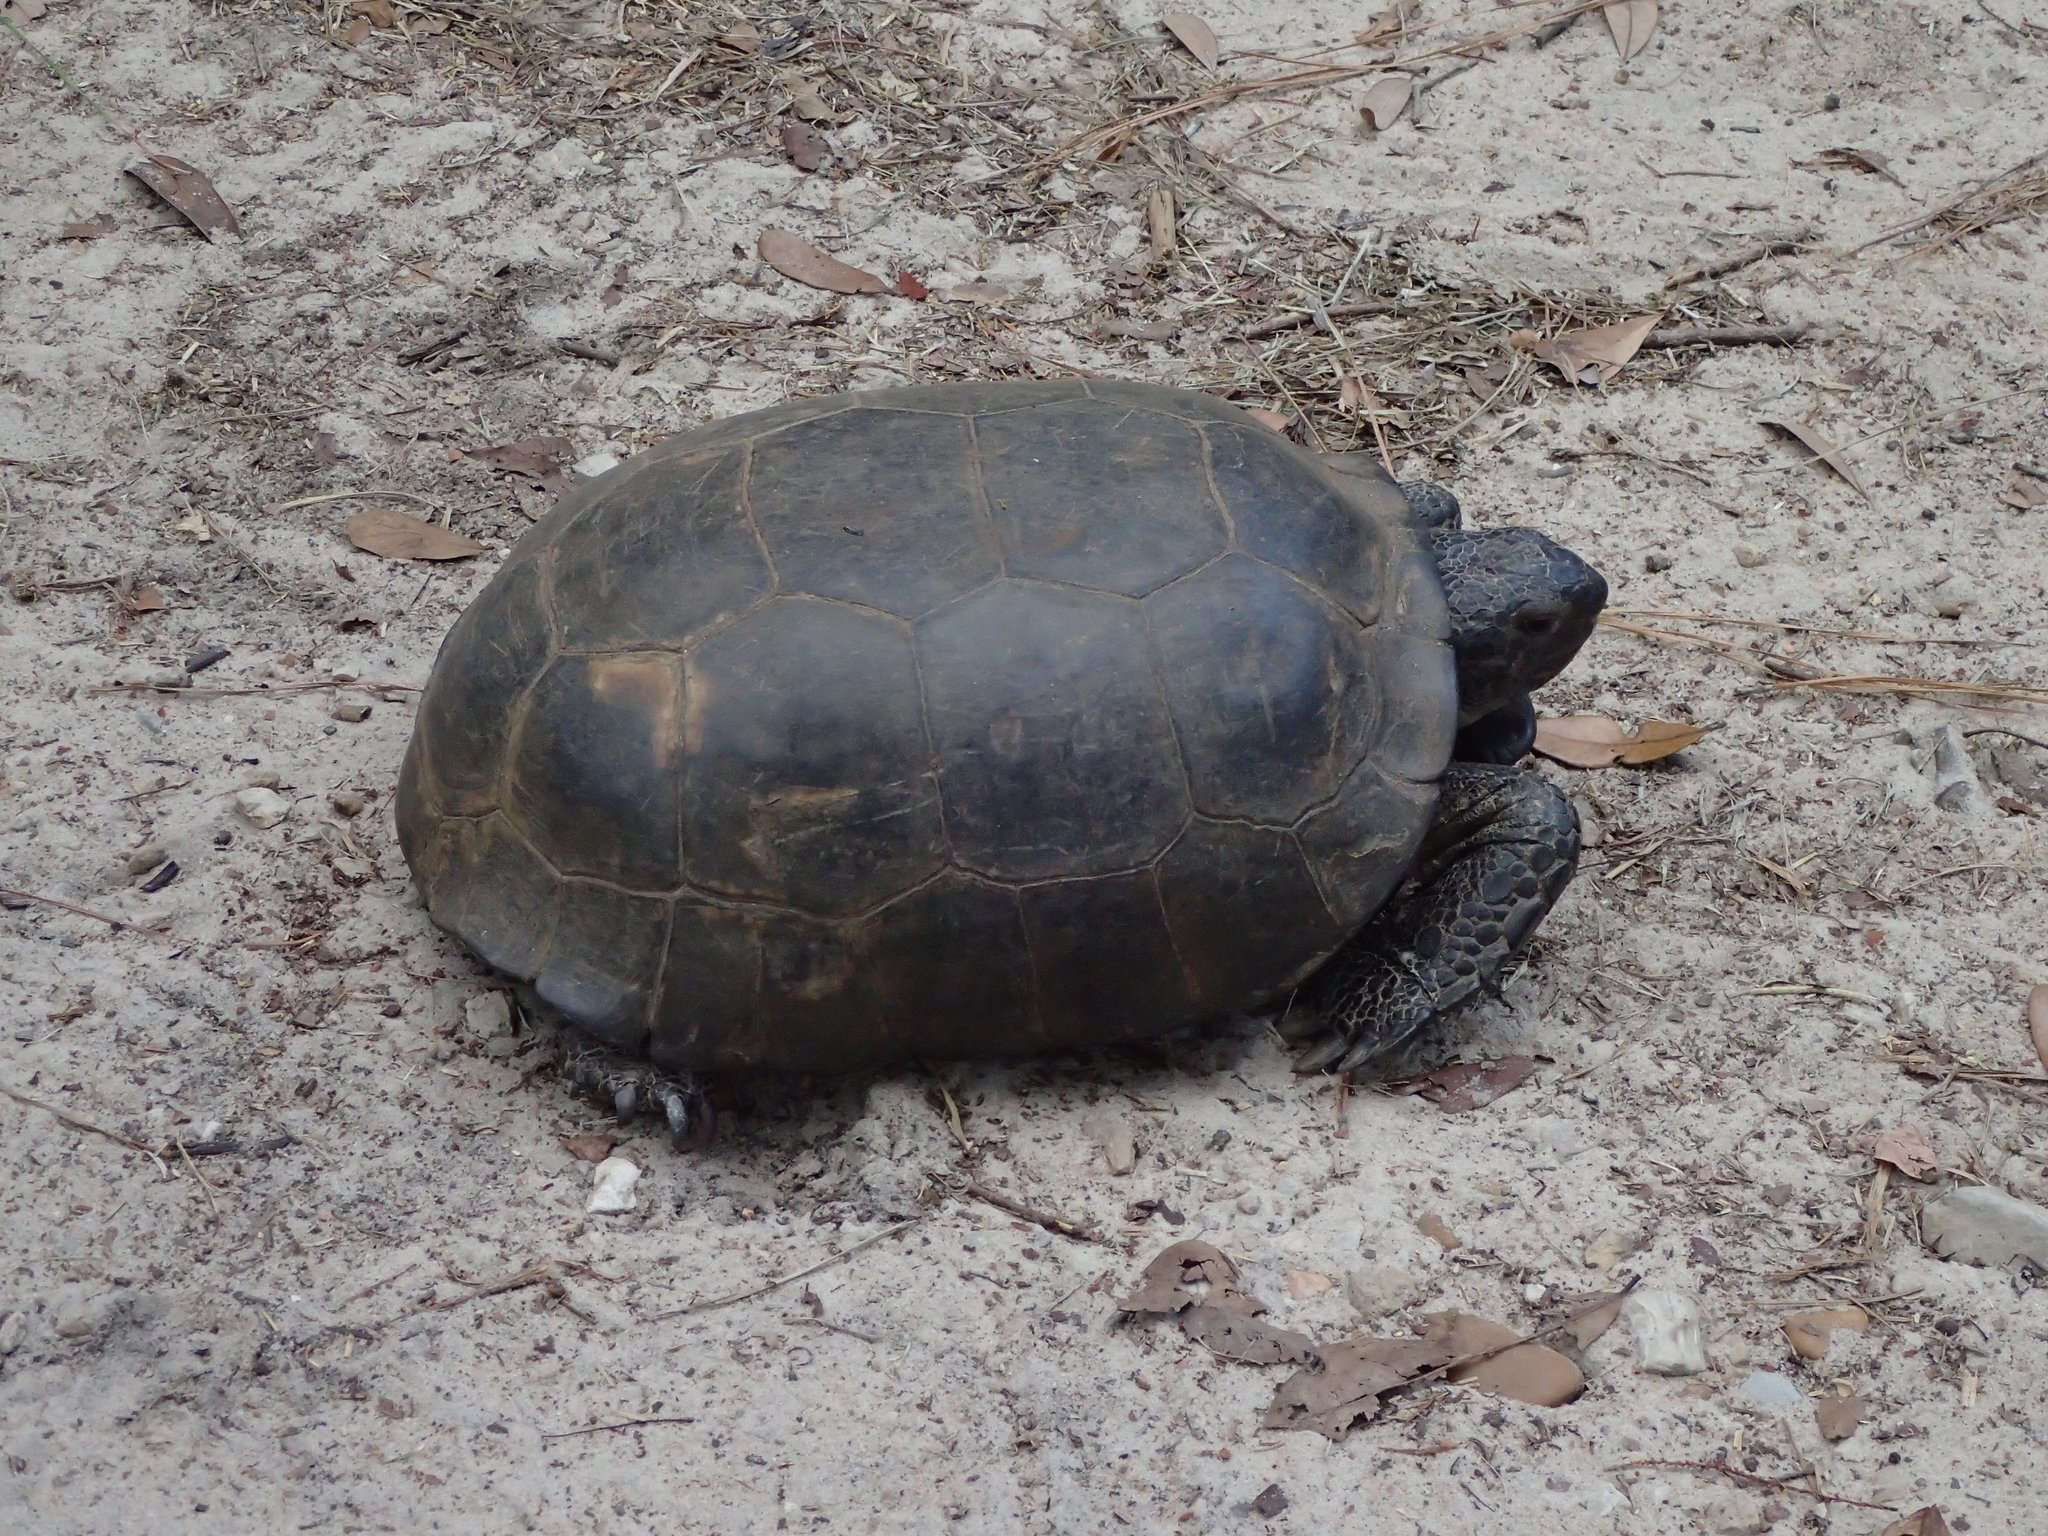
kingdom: Animalia
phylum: Chordata
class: Testudines
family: Testudinidae
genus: Gopherus
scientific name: Gopherus polyphemus
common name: Florida gopher tortoise
